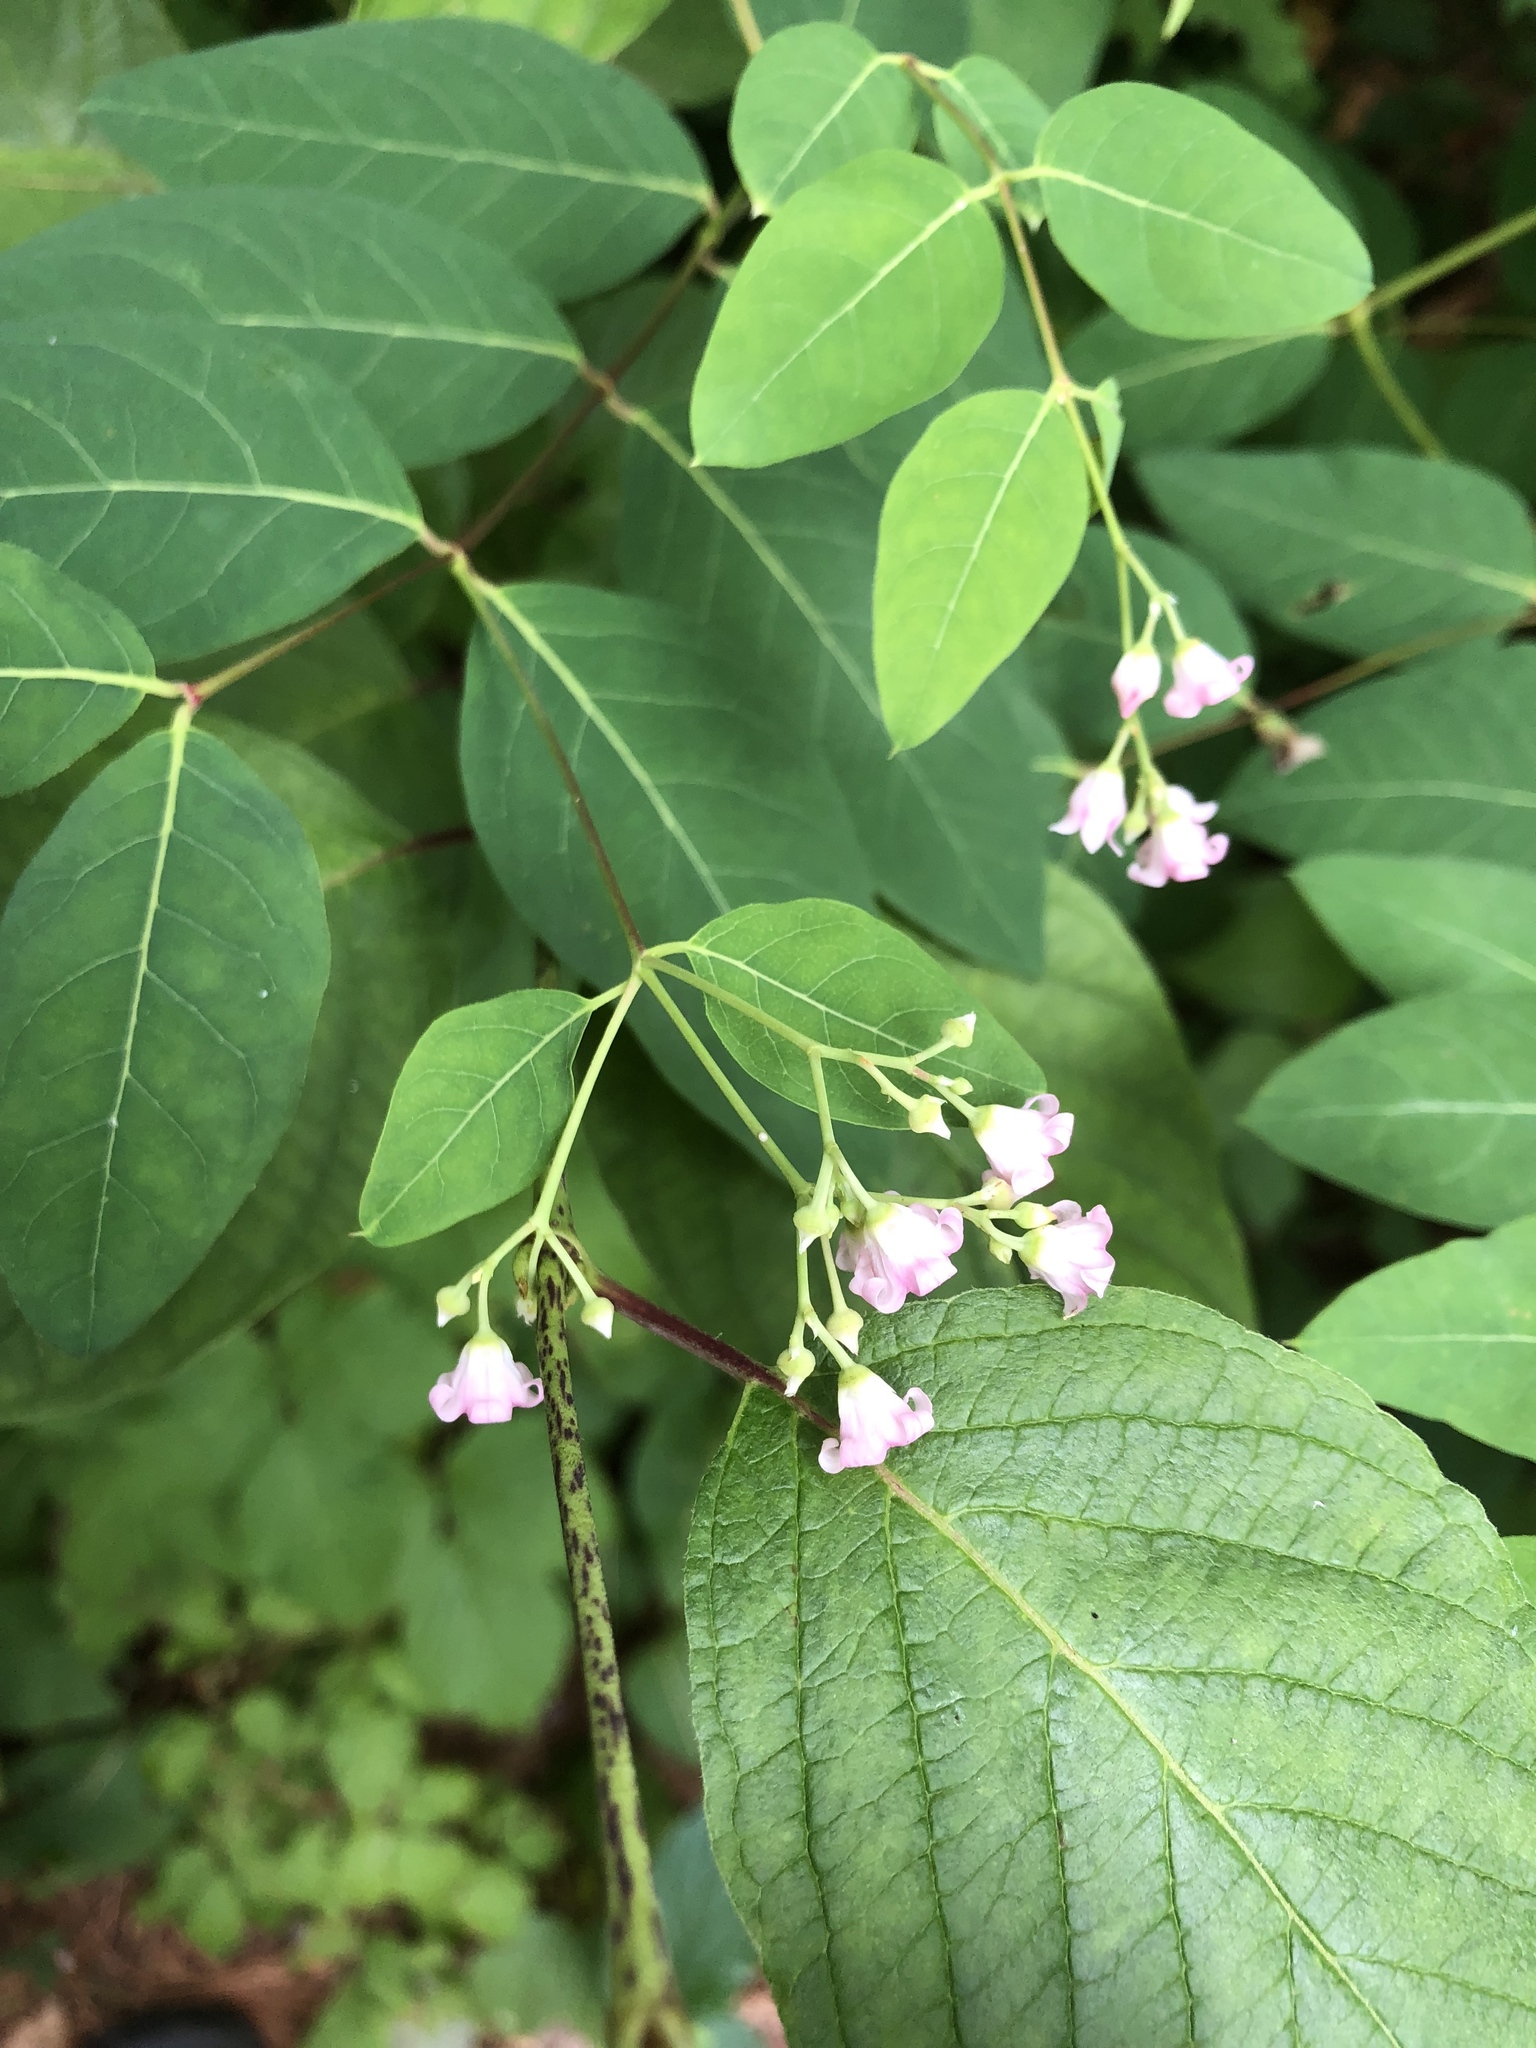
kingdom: Plantae
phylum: Tracheophyta
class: Magnoliopsida
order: Gentianales
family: Apocynaceae
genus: Apocynum
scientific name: Apocynum androsaemifolium
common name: Spreading dogbane
